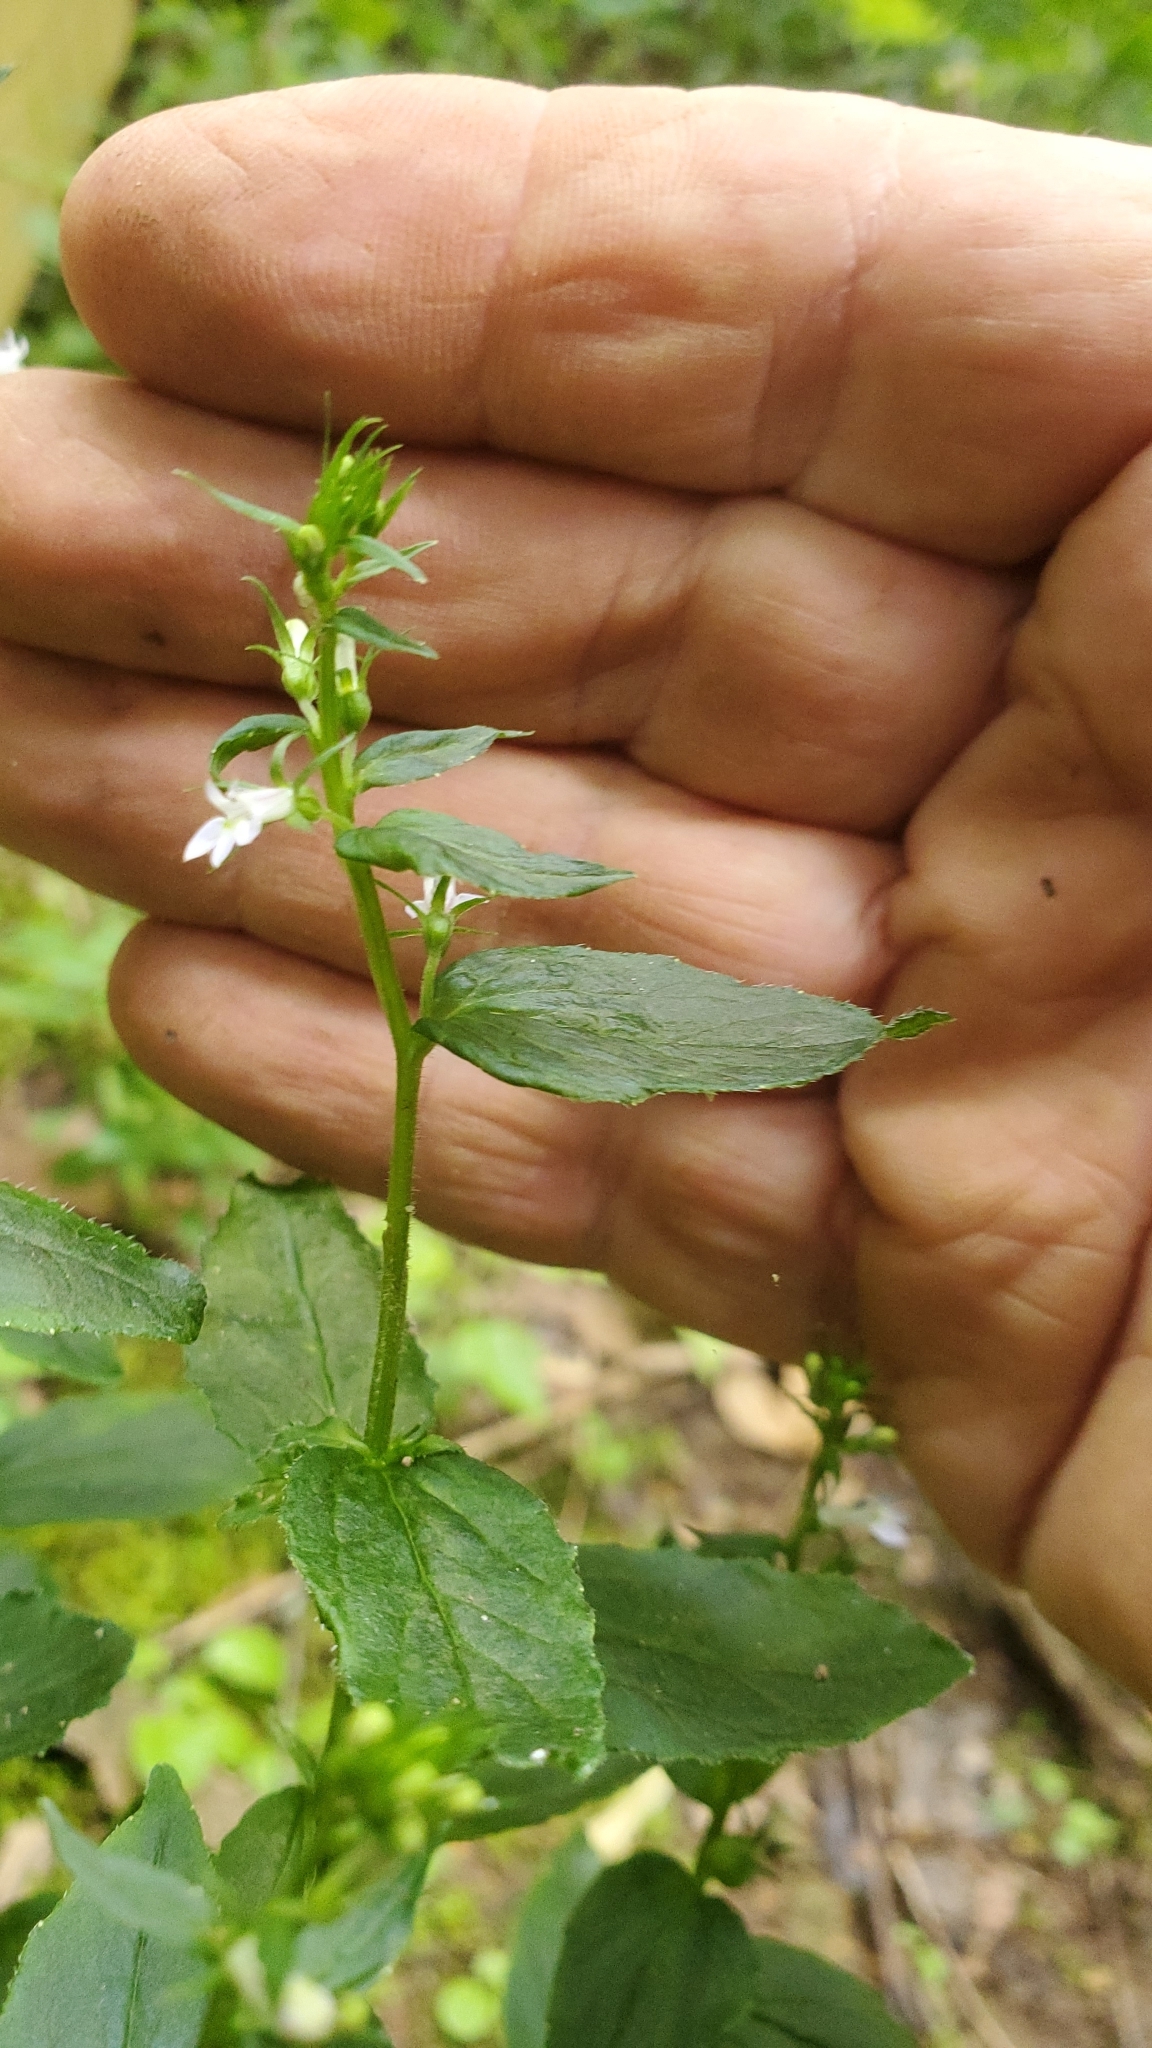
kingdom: Plantae
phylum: Tracheophyta
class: Magnoliopsida
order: Asterales
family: Campanulaceae
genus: Lobelia
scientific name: Lobelia inflata
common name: Indian tobacco
